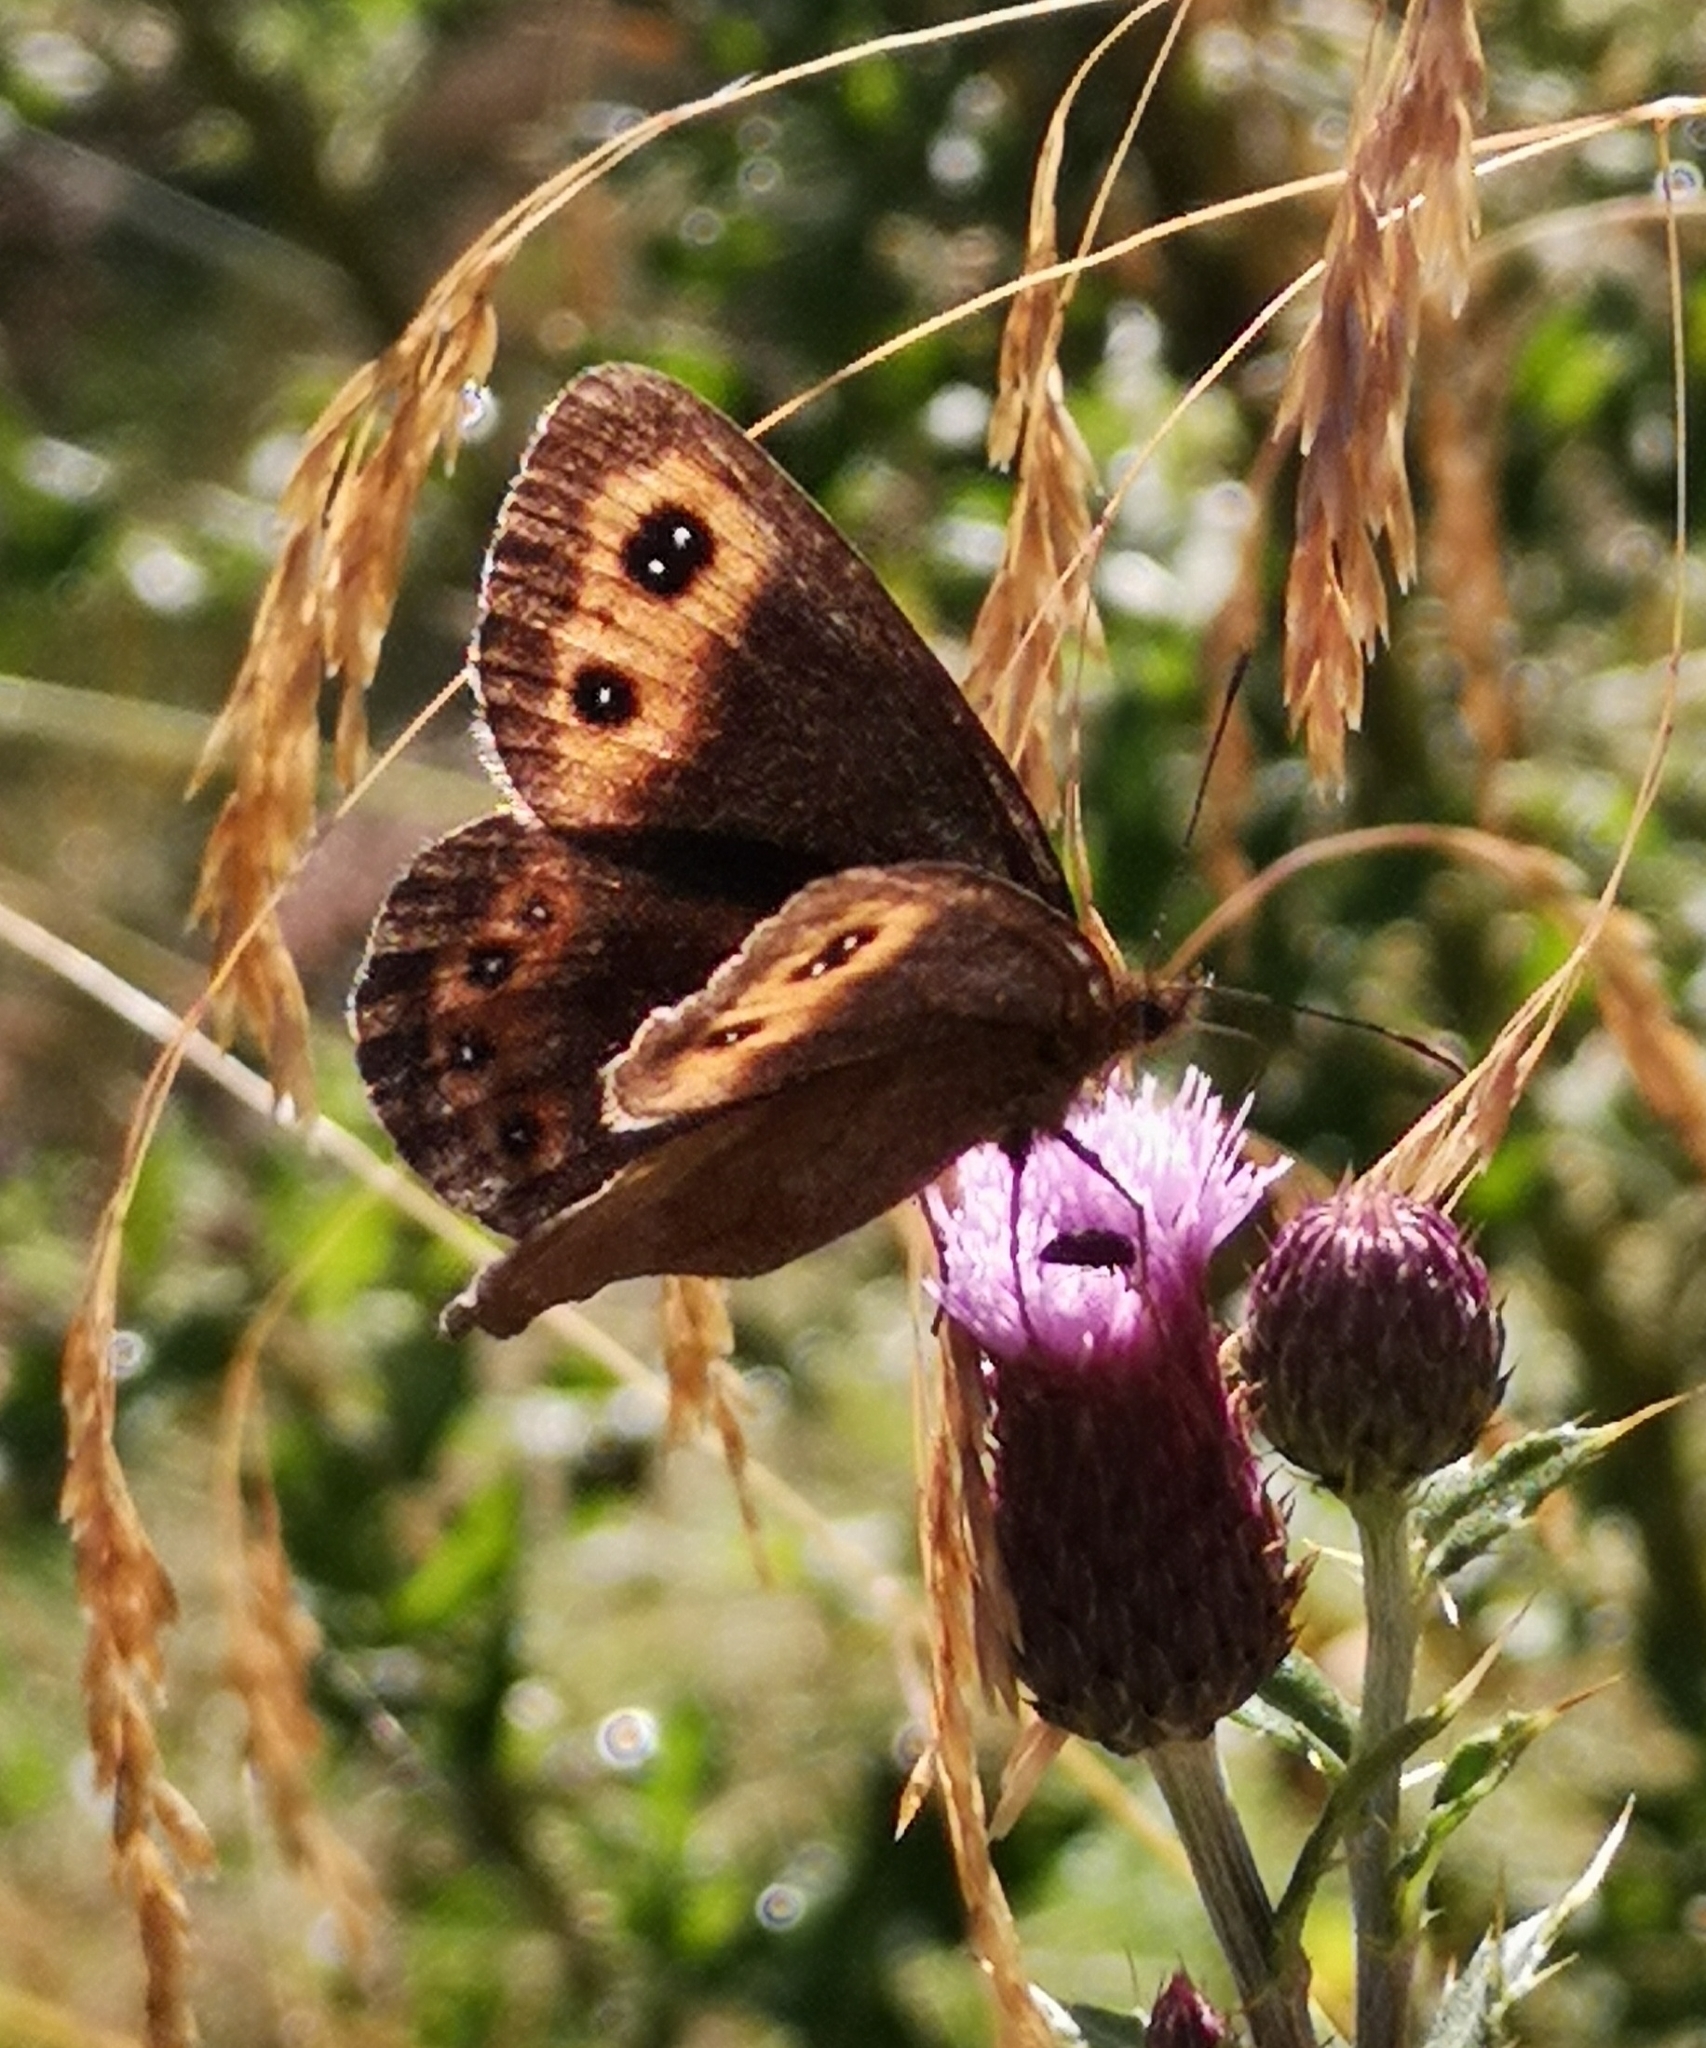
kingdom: Animalia
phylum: Arthropoda
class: Insecta
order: Lepidoptera
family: Nymphalidae
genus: Erebia
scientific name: Erebia aethiops
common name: Scotch argus
